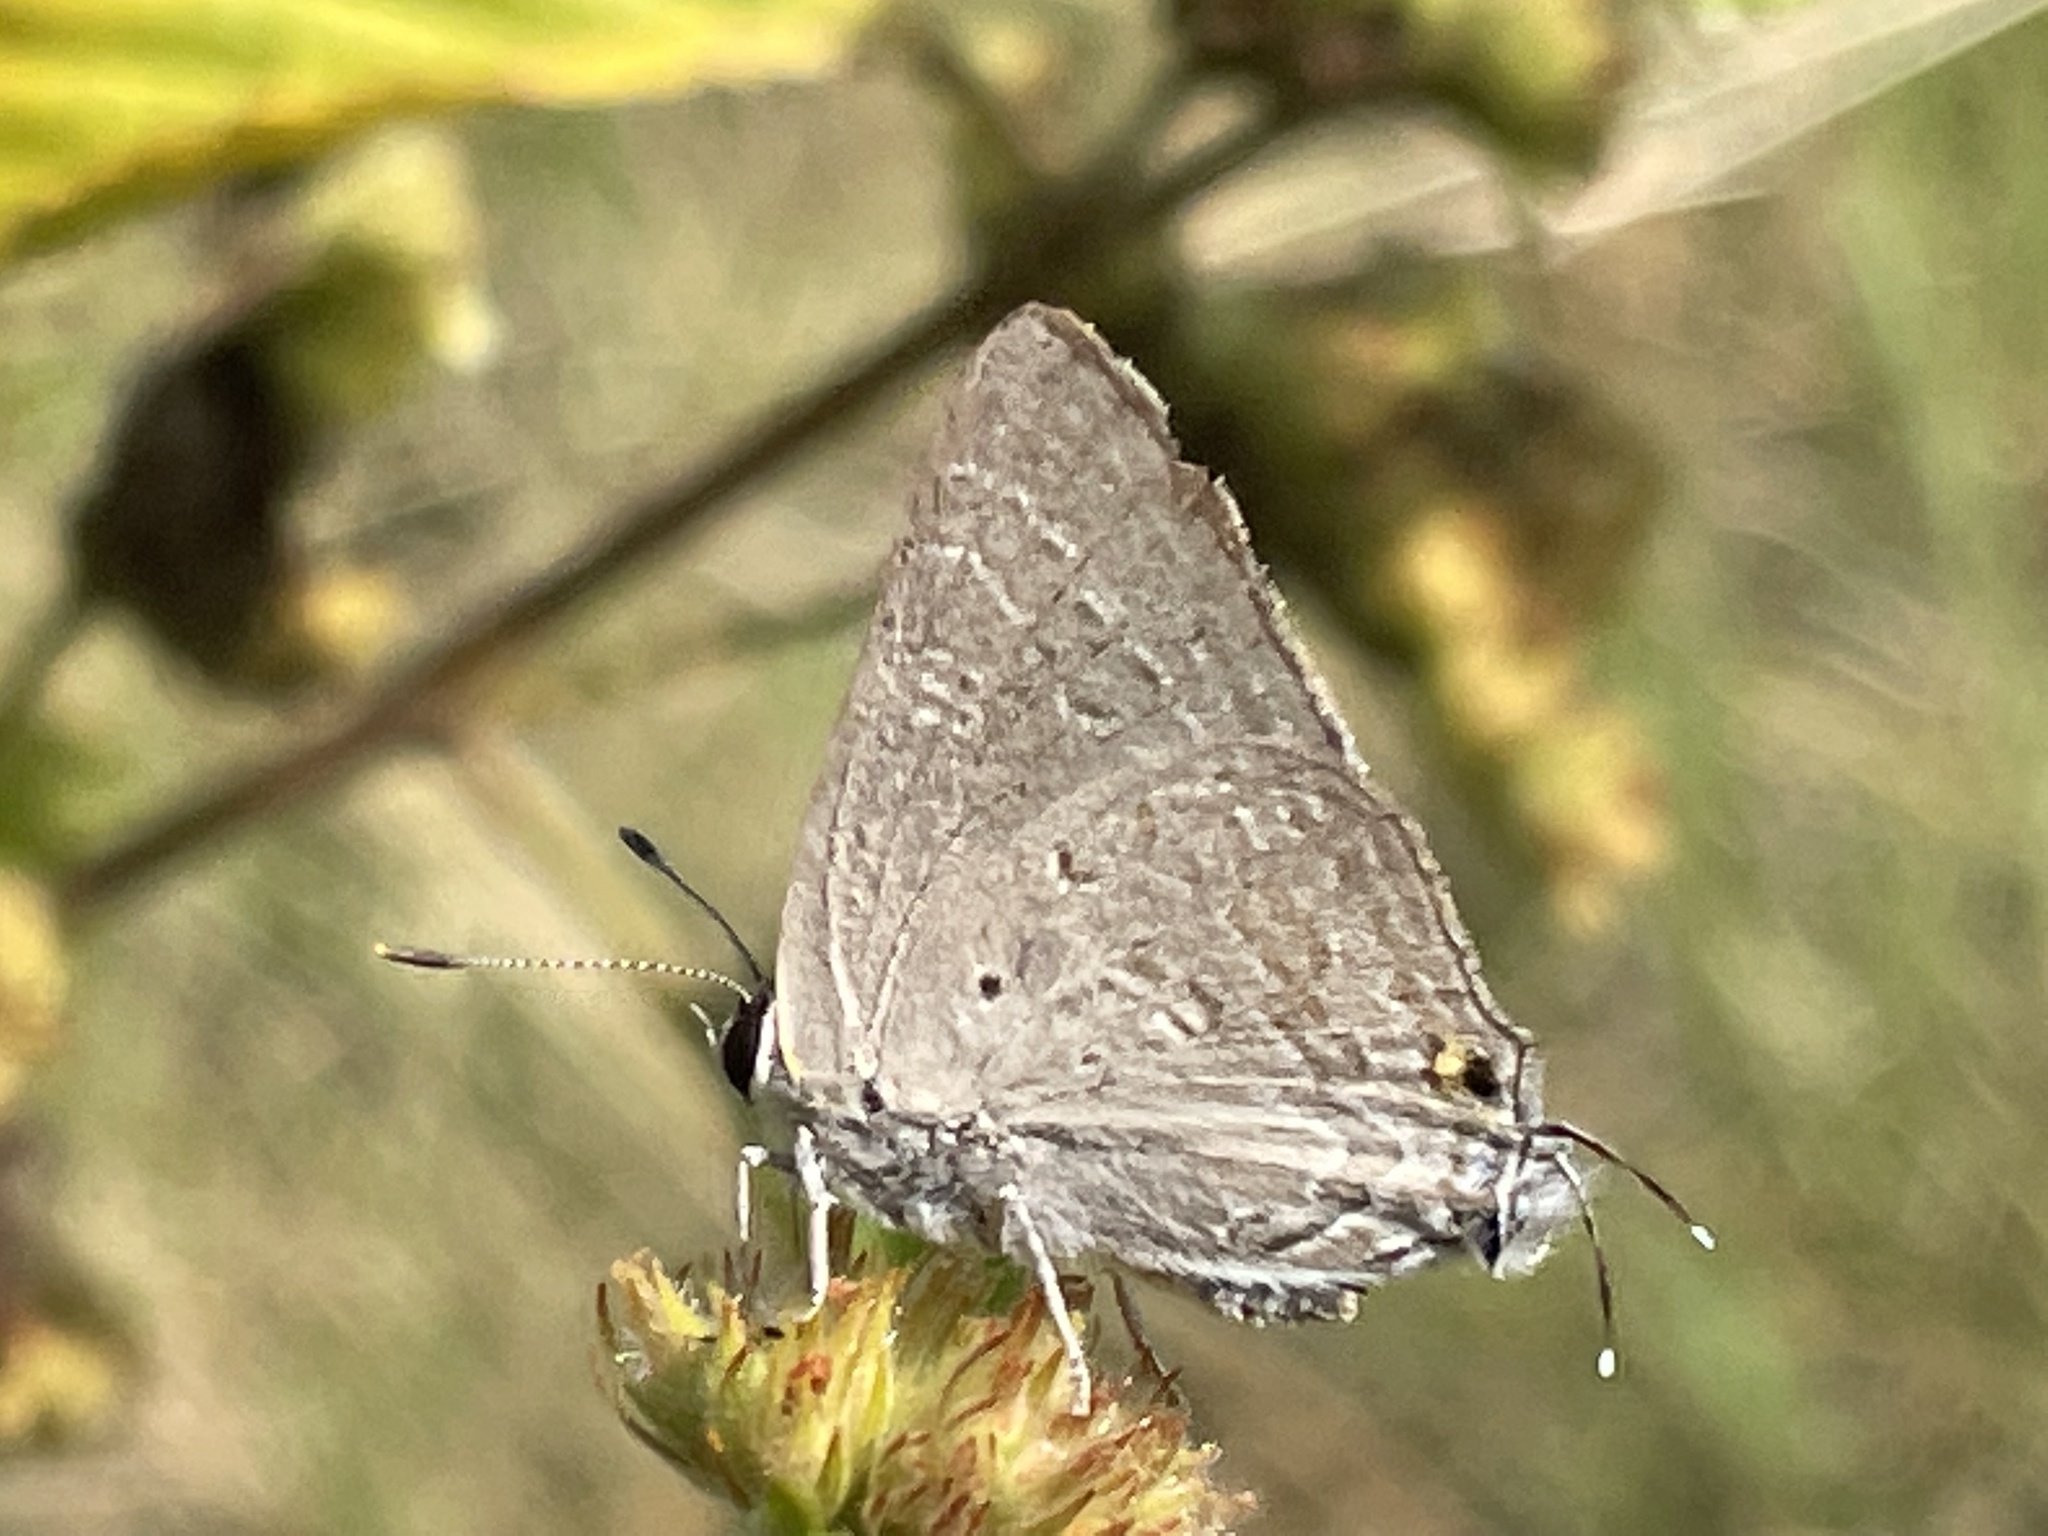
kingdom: Animalia
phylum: Arthropoda
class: Insecta
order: Lepidoptera
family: Lycaenidae
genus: Deudorix
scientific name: Deudorix antalus
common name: Brown playboy
